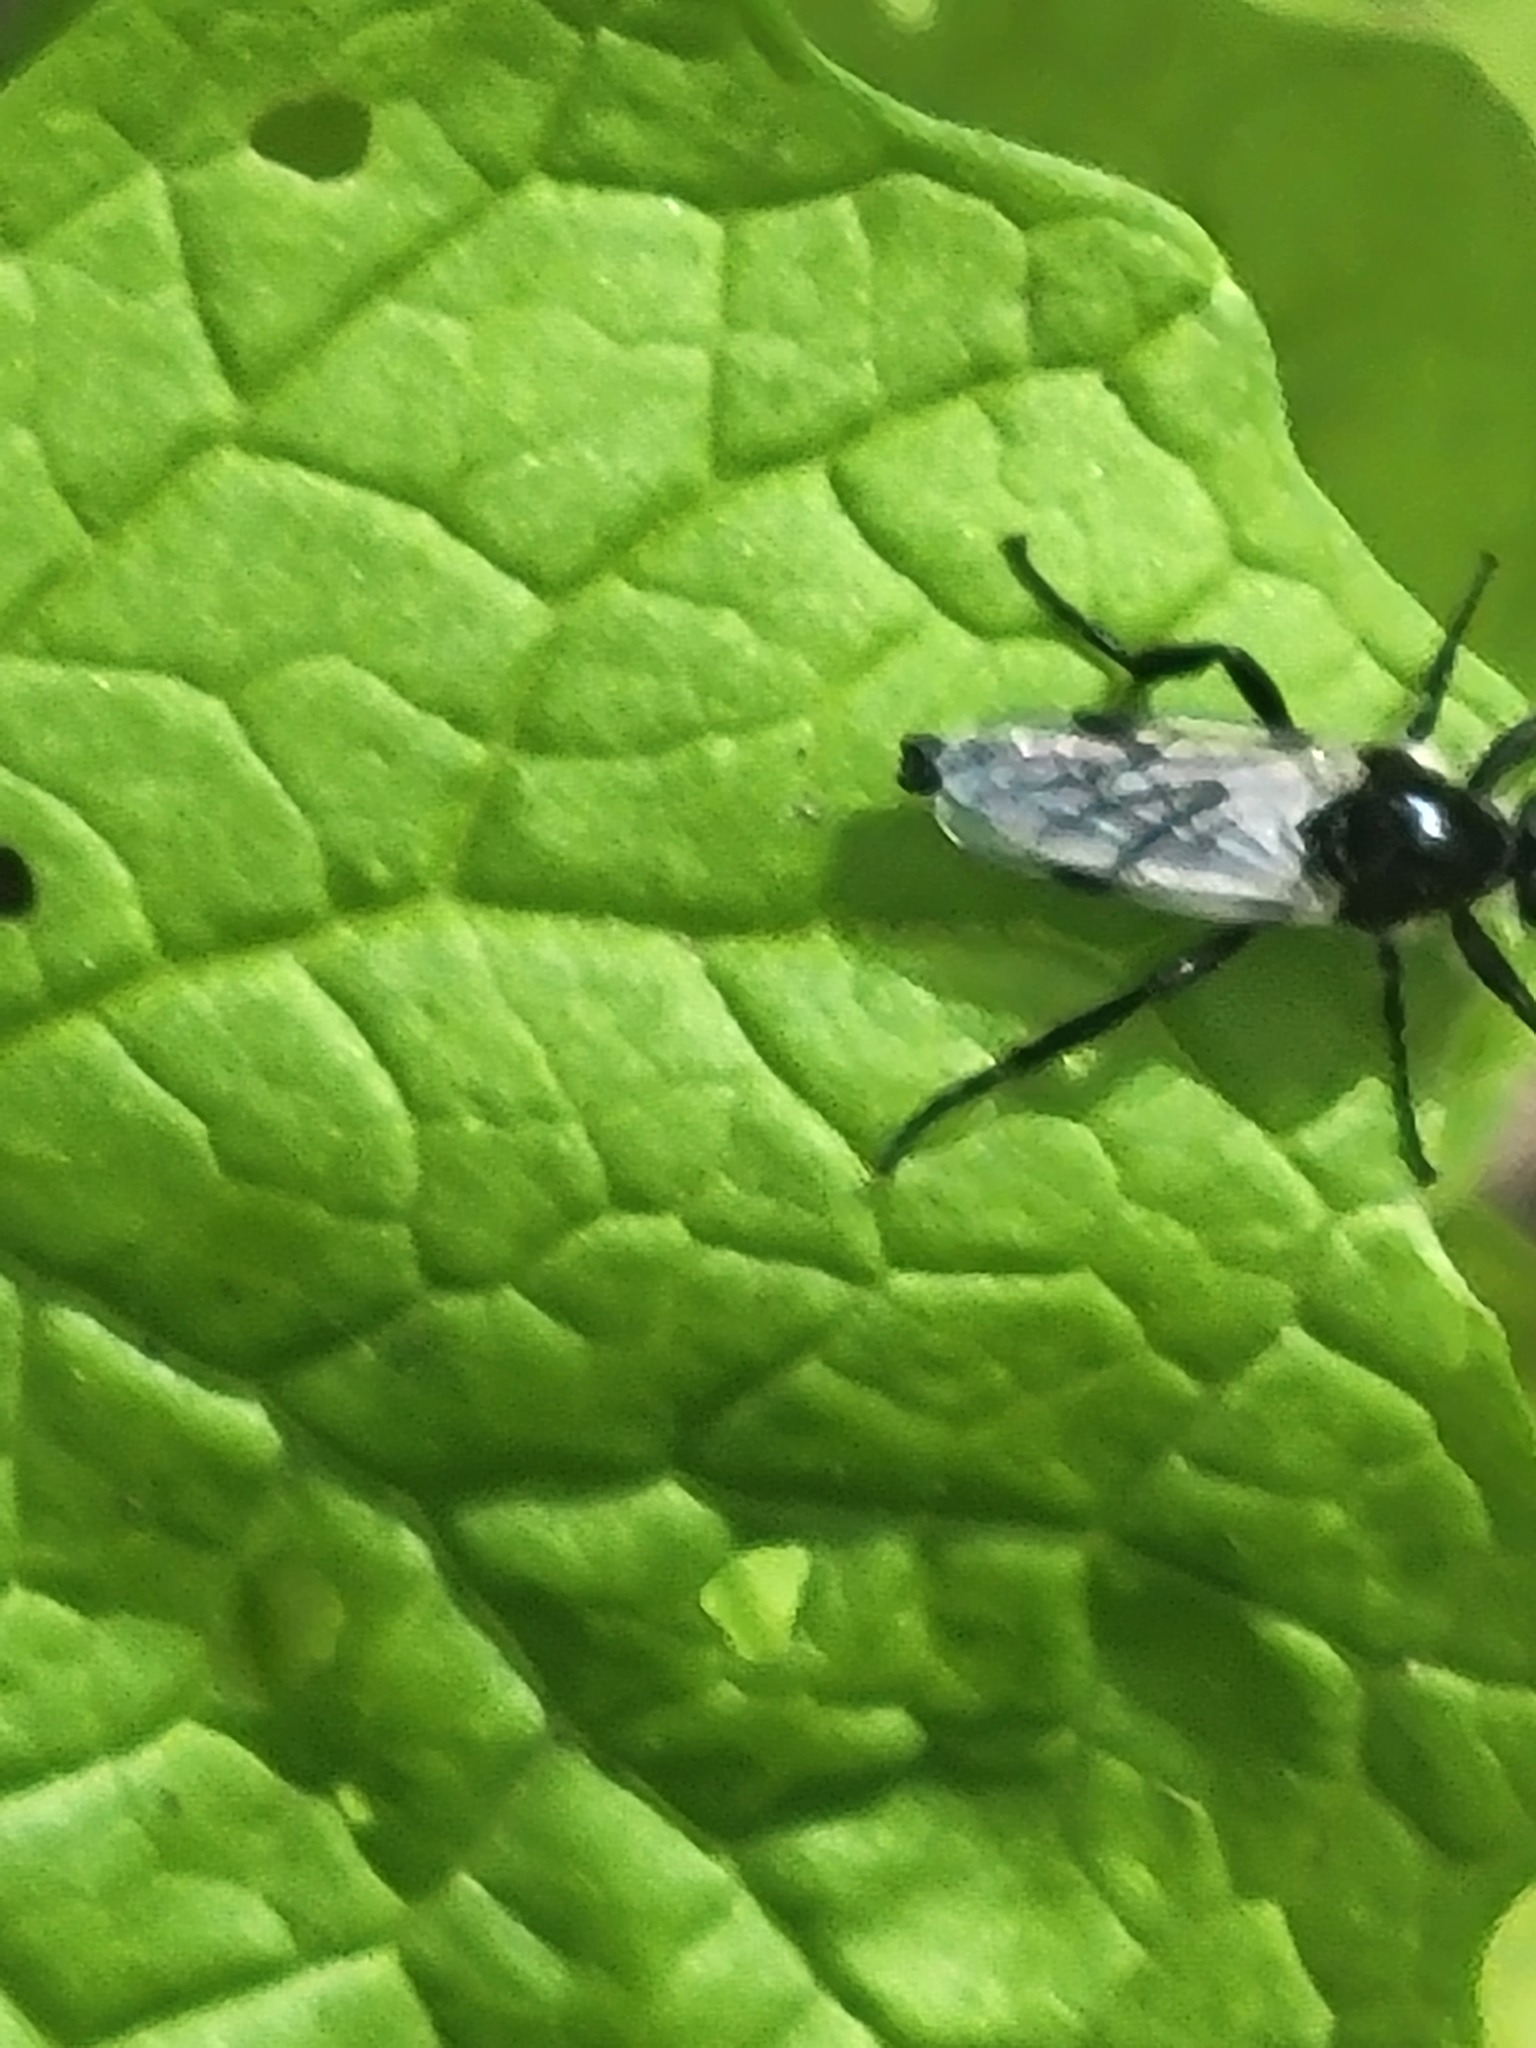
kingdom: Animalia
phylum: Arthropoda
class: Insecta
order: Diptera
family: Bibionidae
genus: Bibio
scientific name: Bibio albipennis
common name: White-winged march fly
